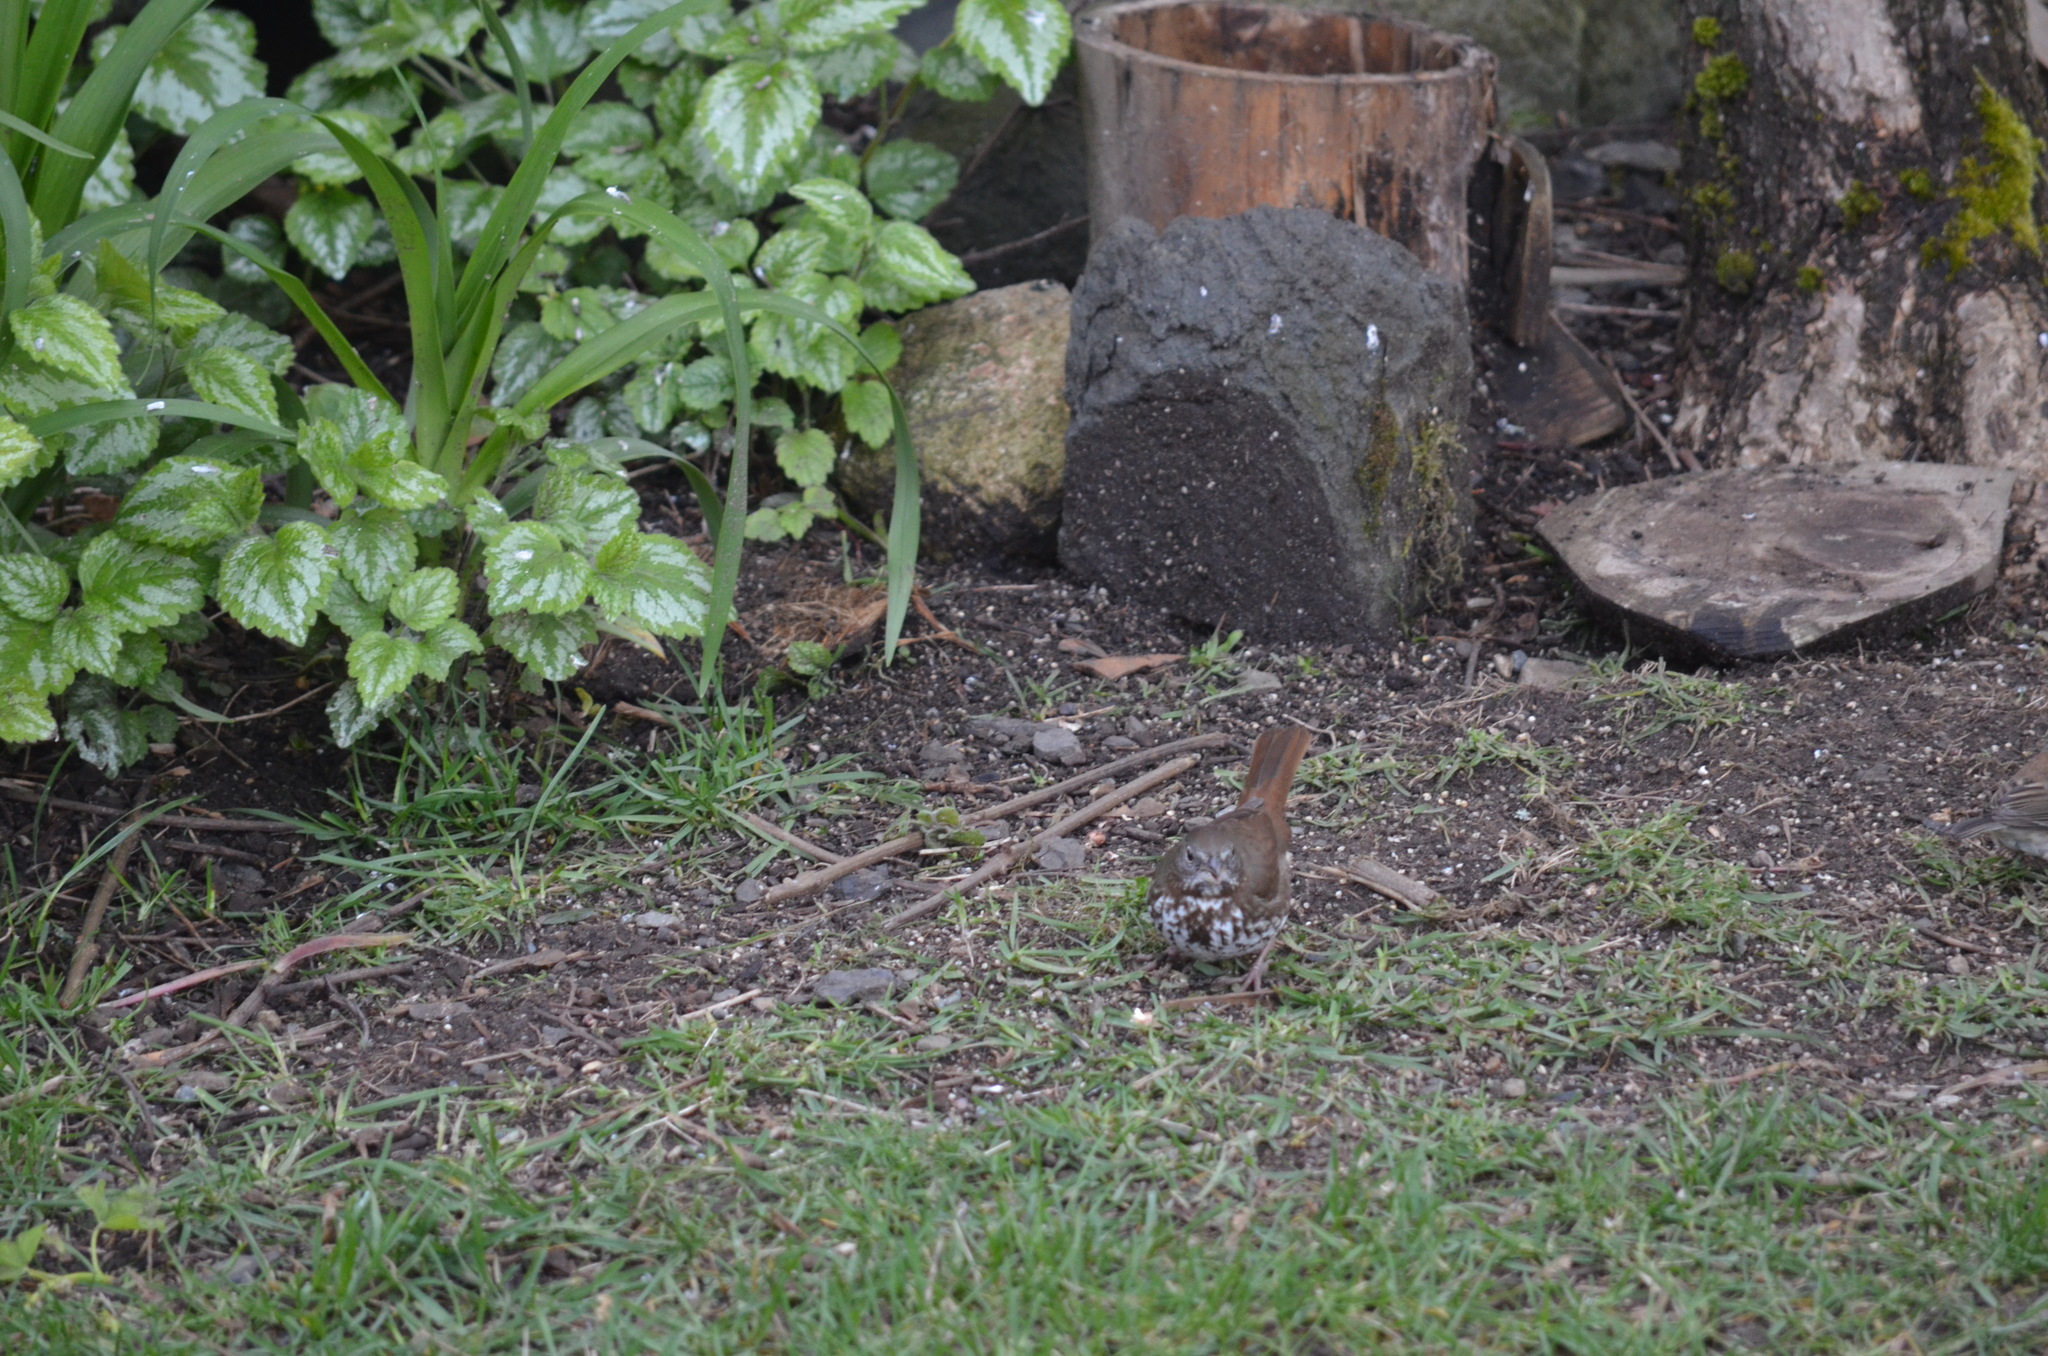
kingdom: Animalia
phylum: Chordata
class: Aves
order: Passeriformes
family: Passerellidae
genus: Passerella
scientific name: Passerella iliaca
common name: Fox sparrow
